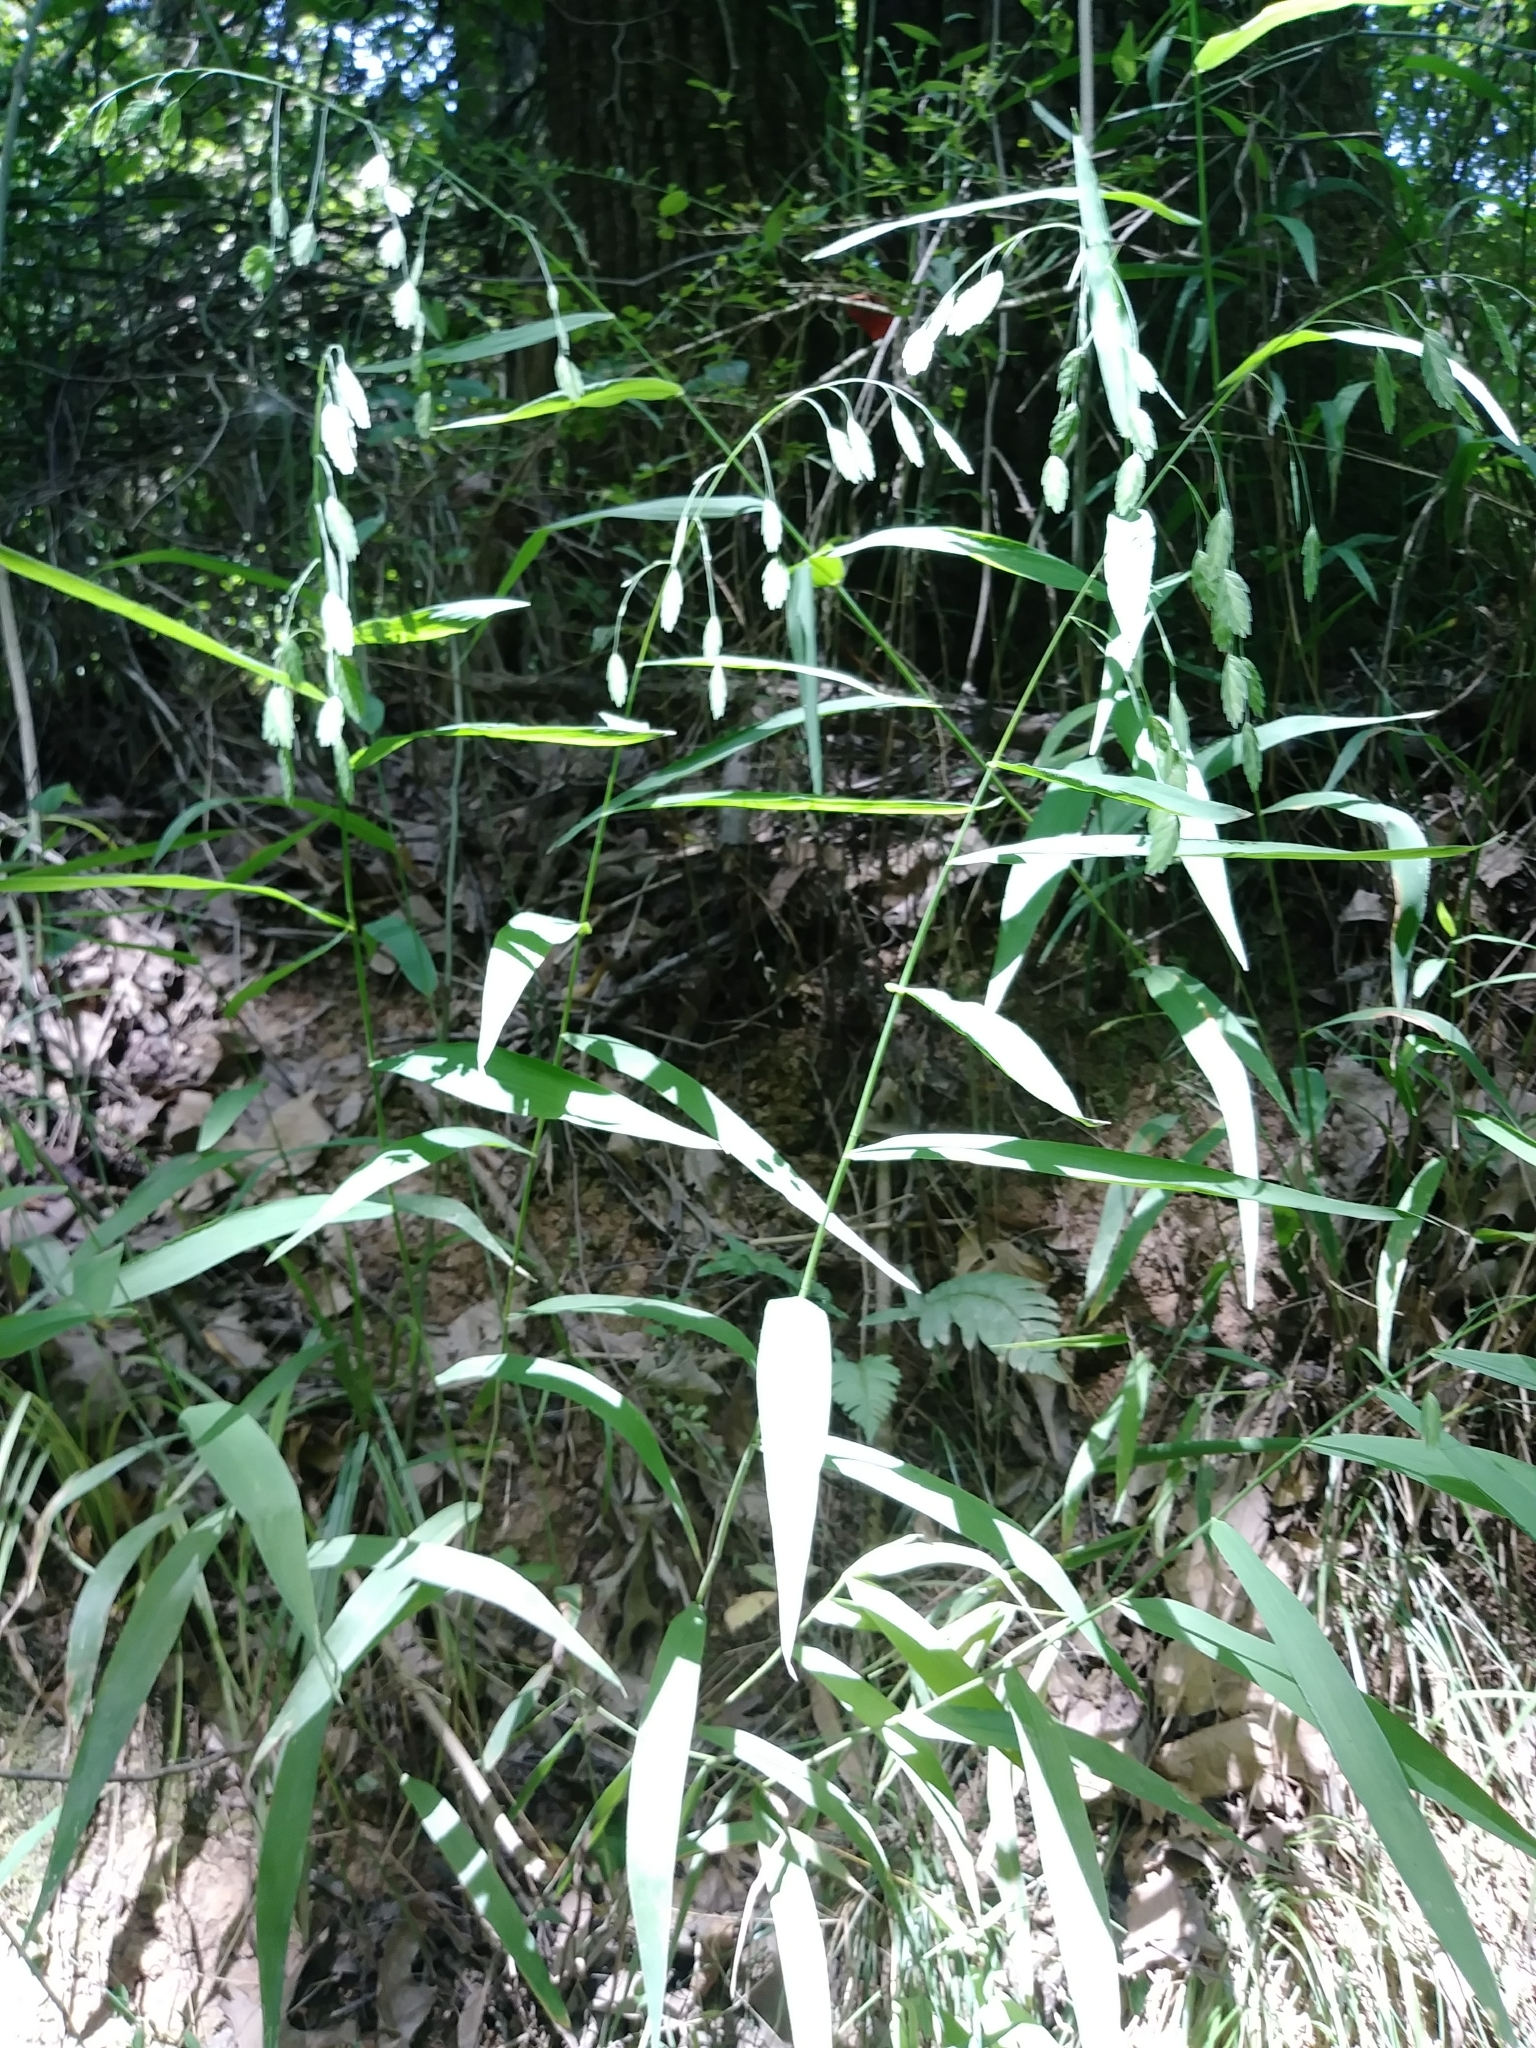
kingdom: Plantae
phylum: Tracheophyta
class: Liliopsida
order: Poales
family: Poaceae
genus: Chasmanthium
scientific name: Chasmanthium latifolium
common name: Broad-leaved chasmanthium
